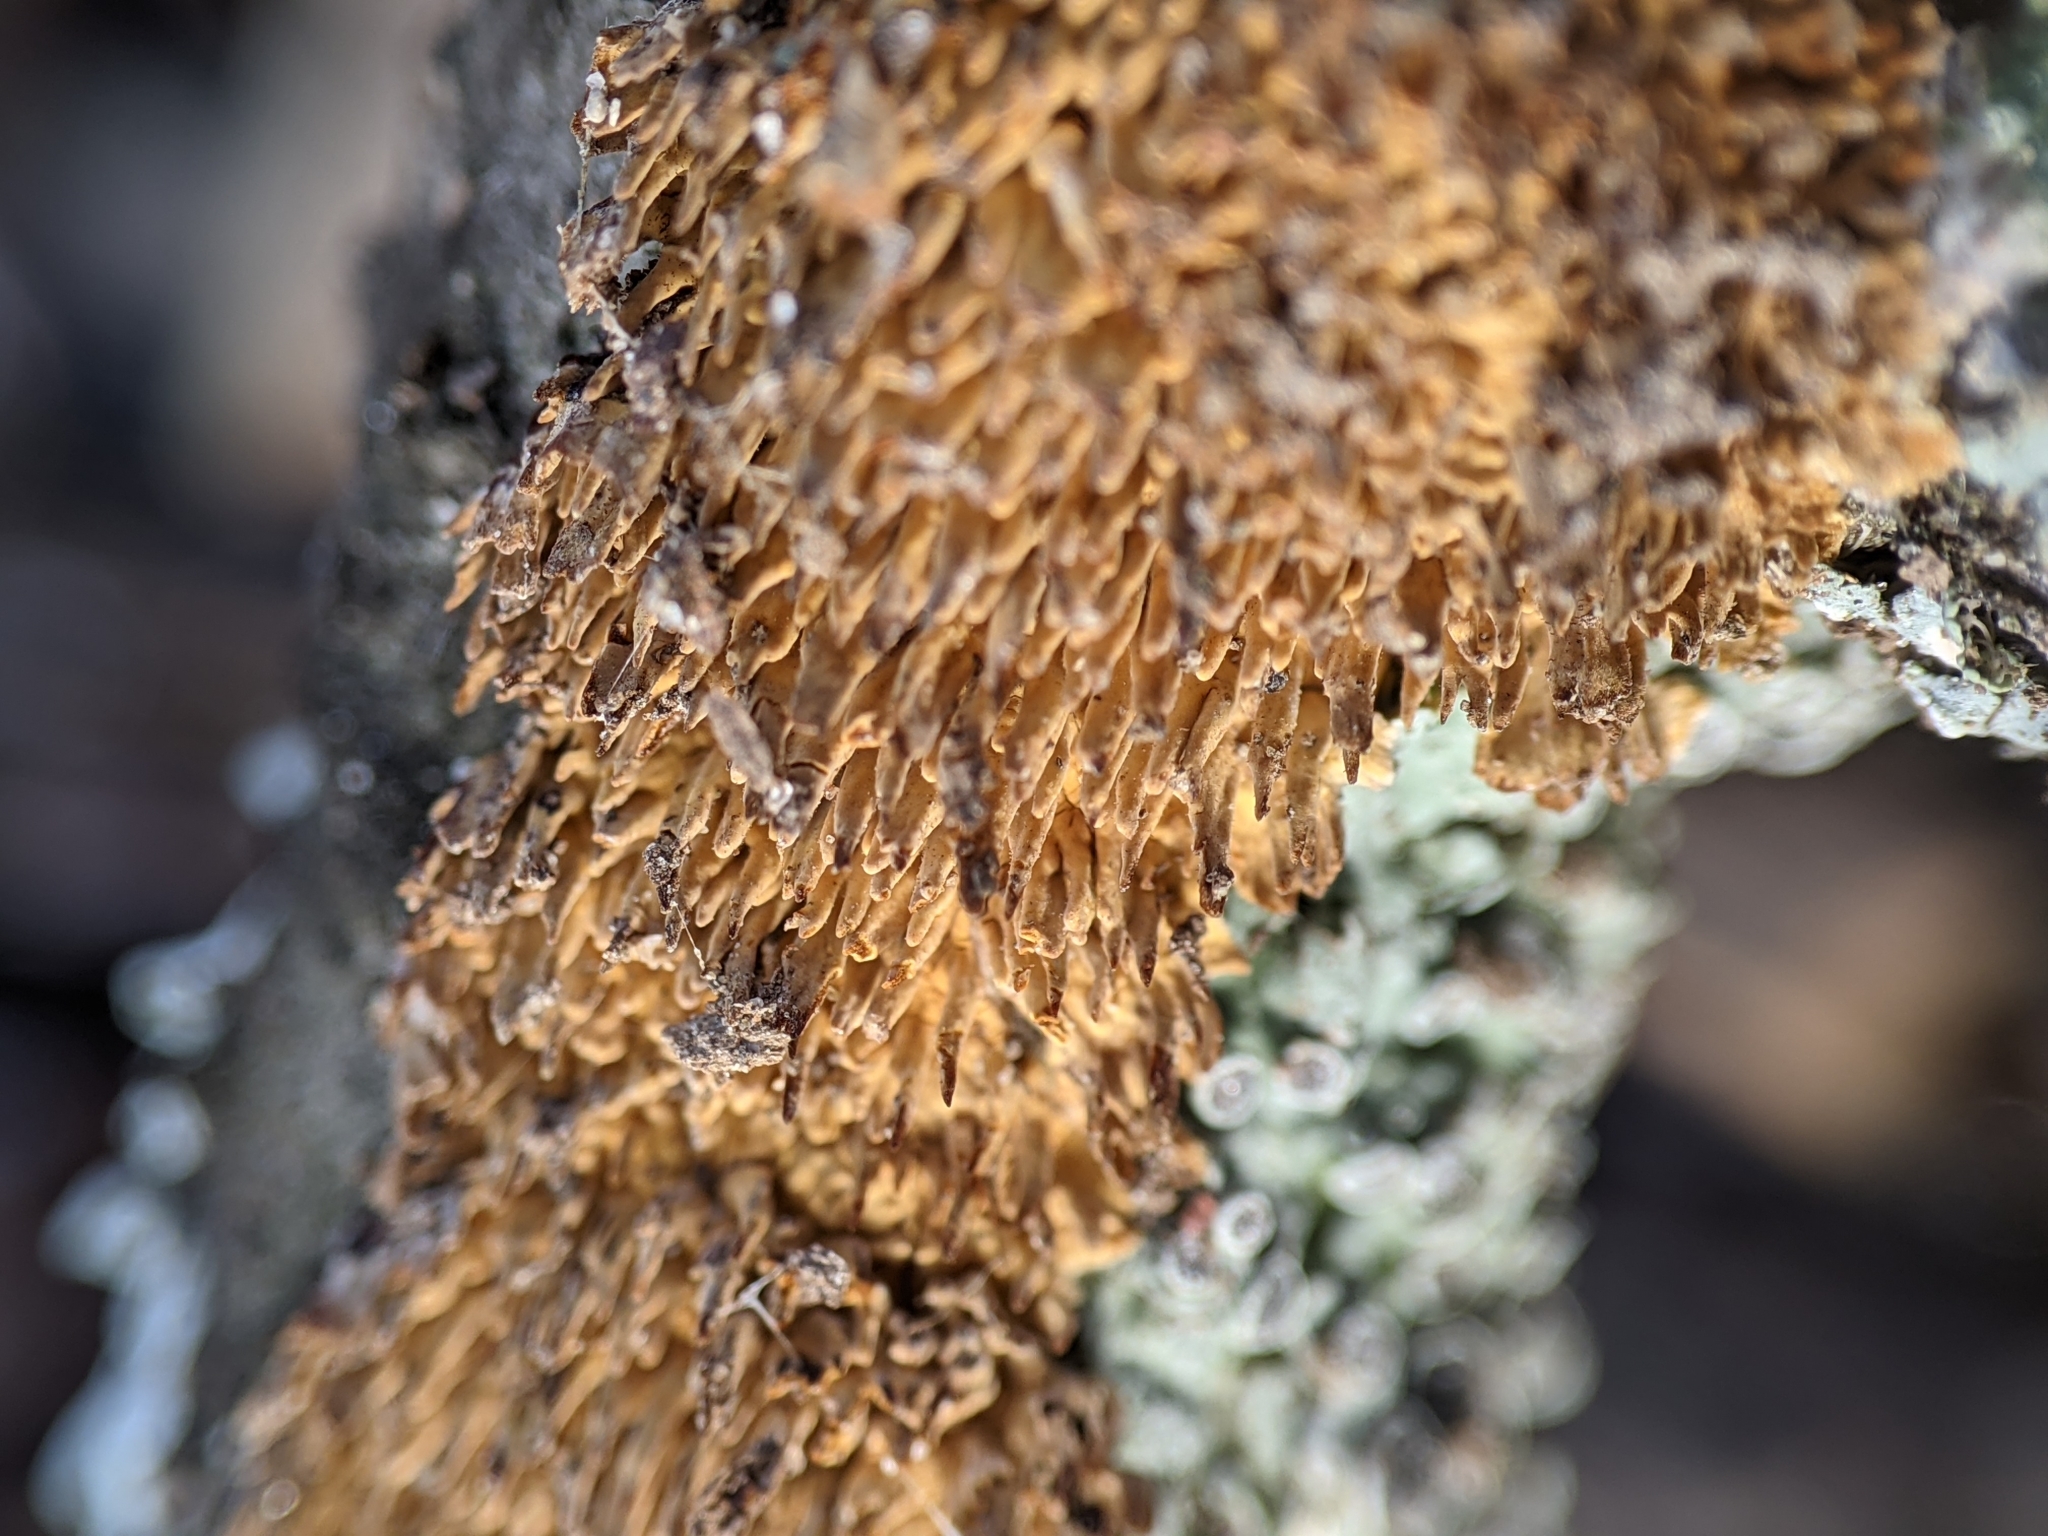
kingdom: Fungi
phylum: Basidiomycota
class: Agaricomycetes
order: Hymenochaetales
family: Hymenochaetaceae
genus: Hydnoporia
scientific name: Hydnoporia olivacea
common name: Brown-toothed crust fungus
